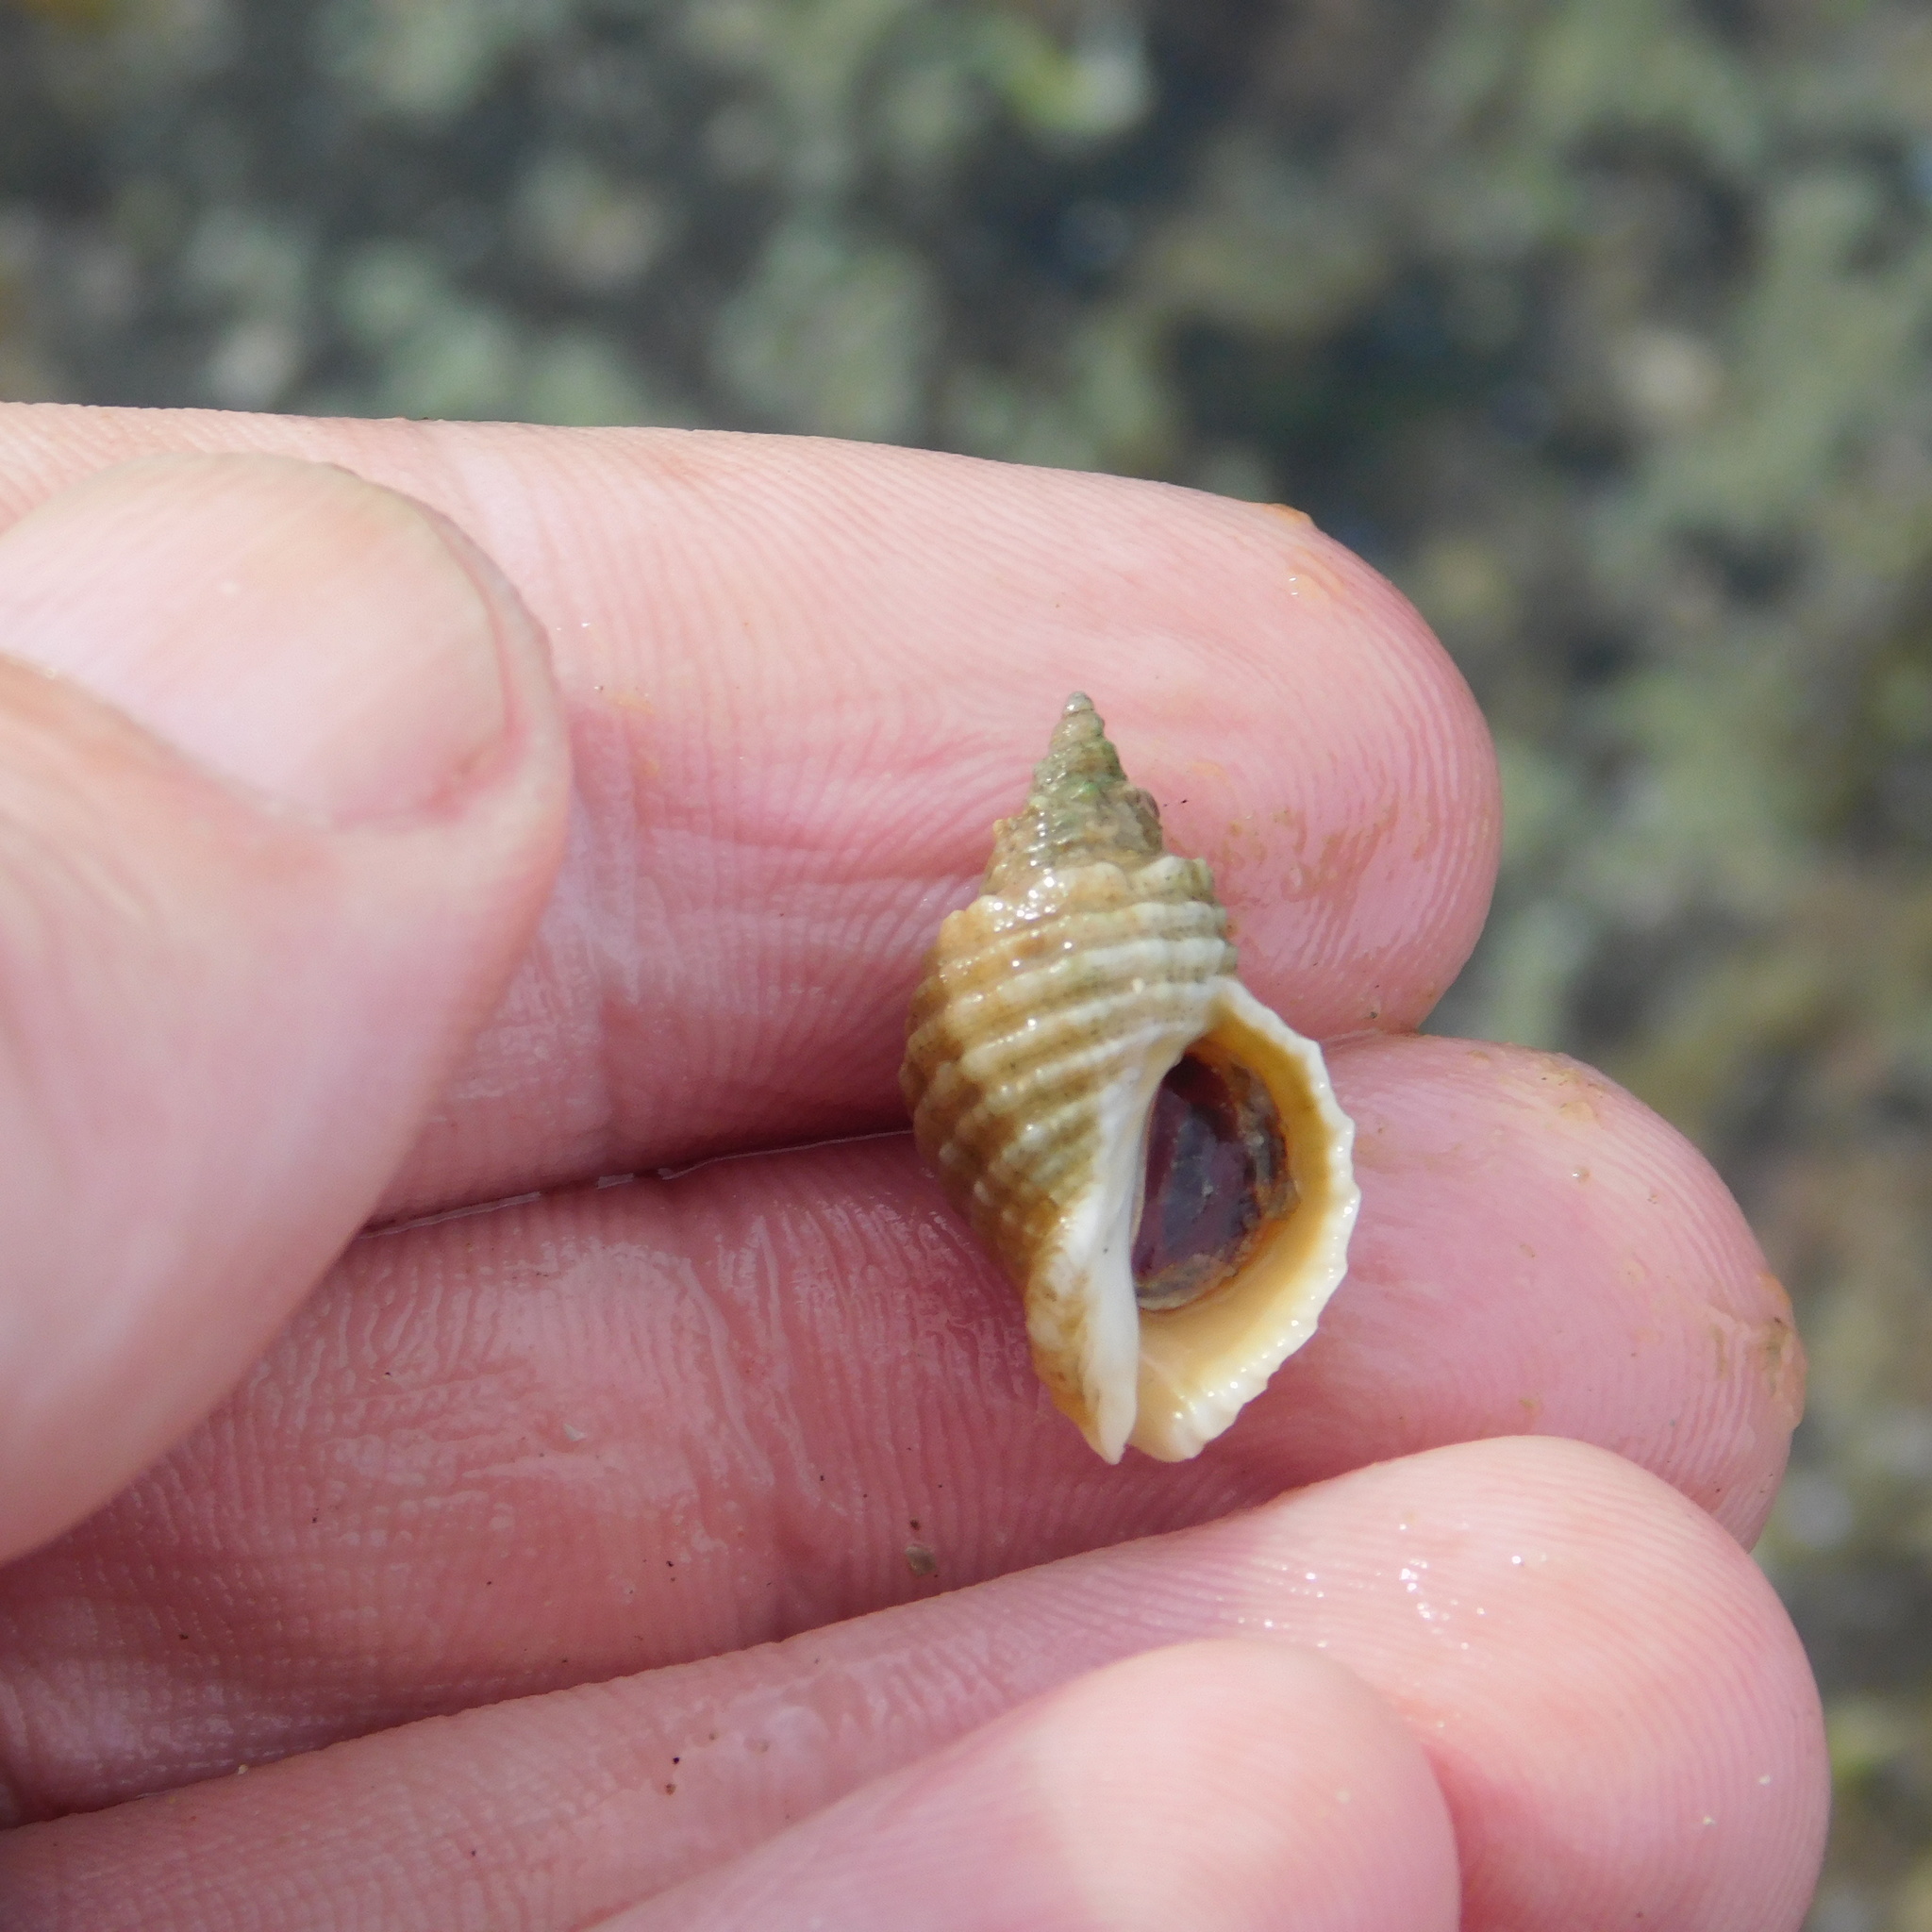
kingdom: Animalia
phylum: Mollusca
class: Gastropoda
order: Neogastropoda
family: Muricidae
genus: Dicathais
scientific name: Dicathais orbita
